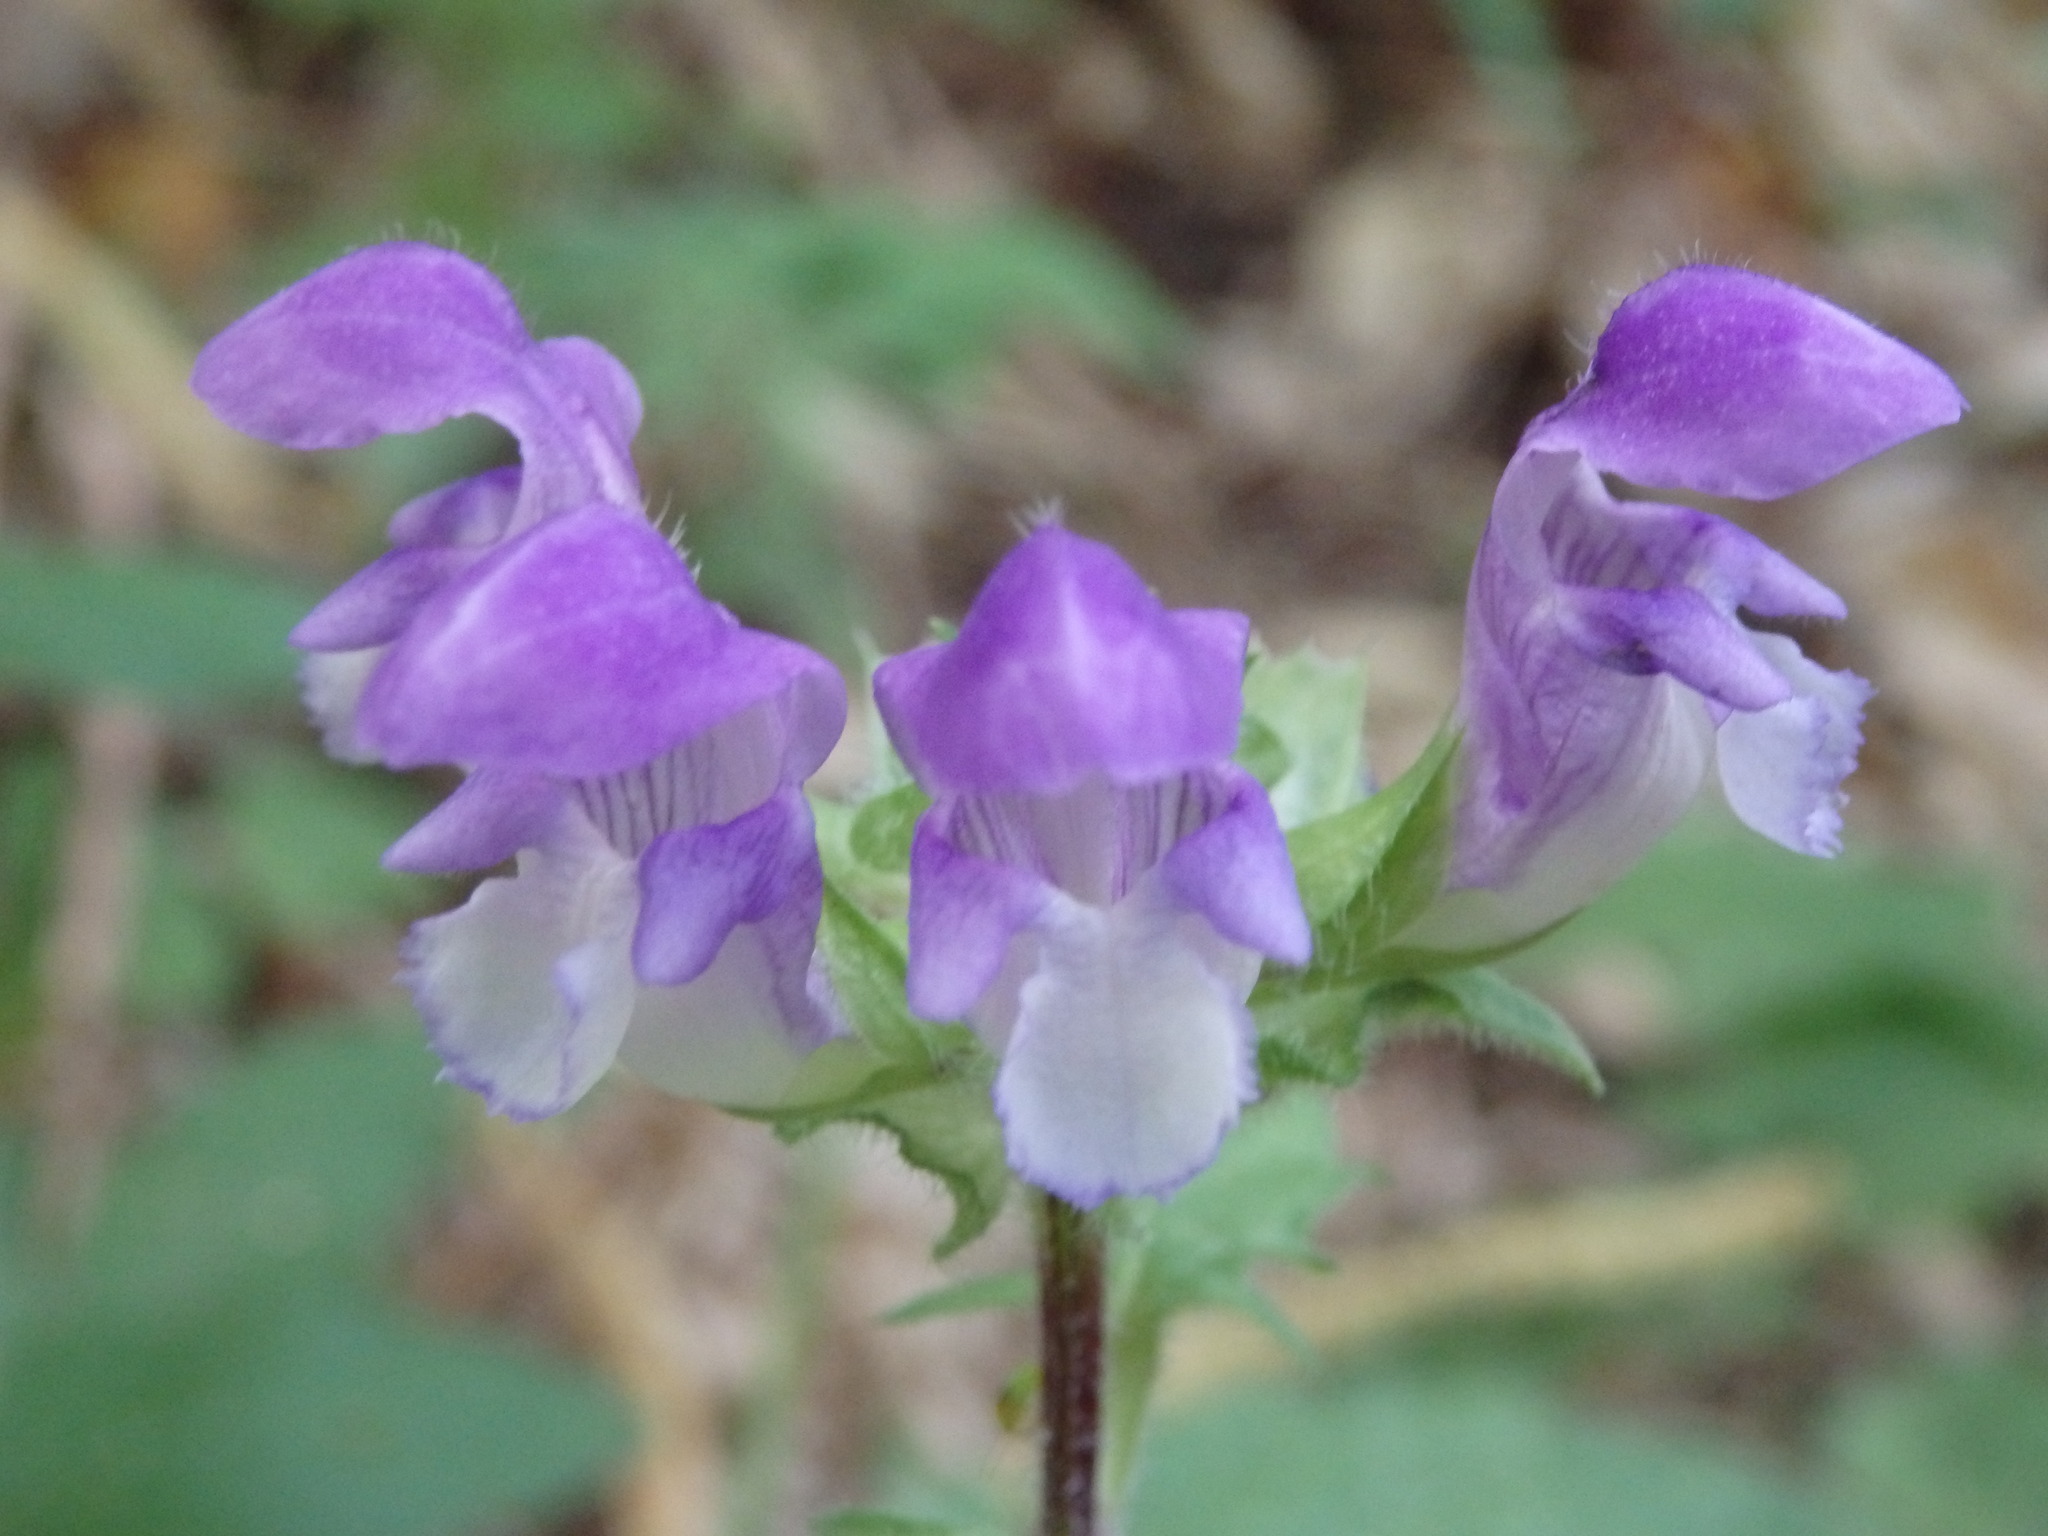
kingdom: Plantae
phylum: Tracheophyta
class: Magnoliopsida
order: Lamiales
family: Lamiaceae
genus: Prunella
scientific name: Prunella grandiflora
